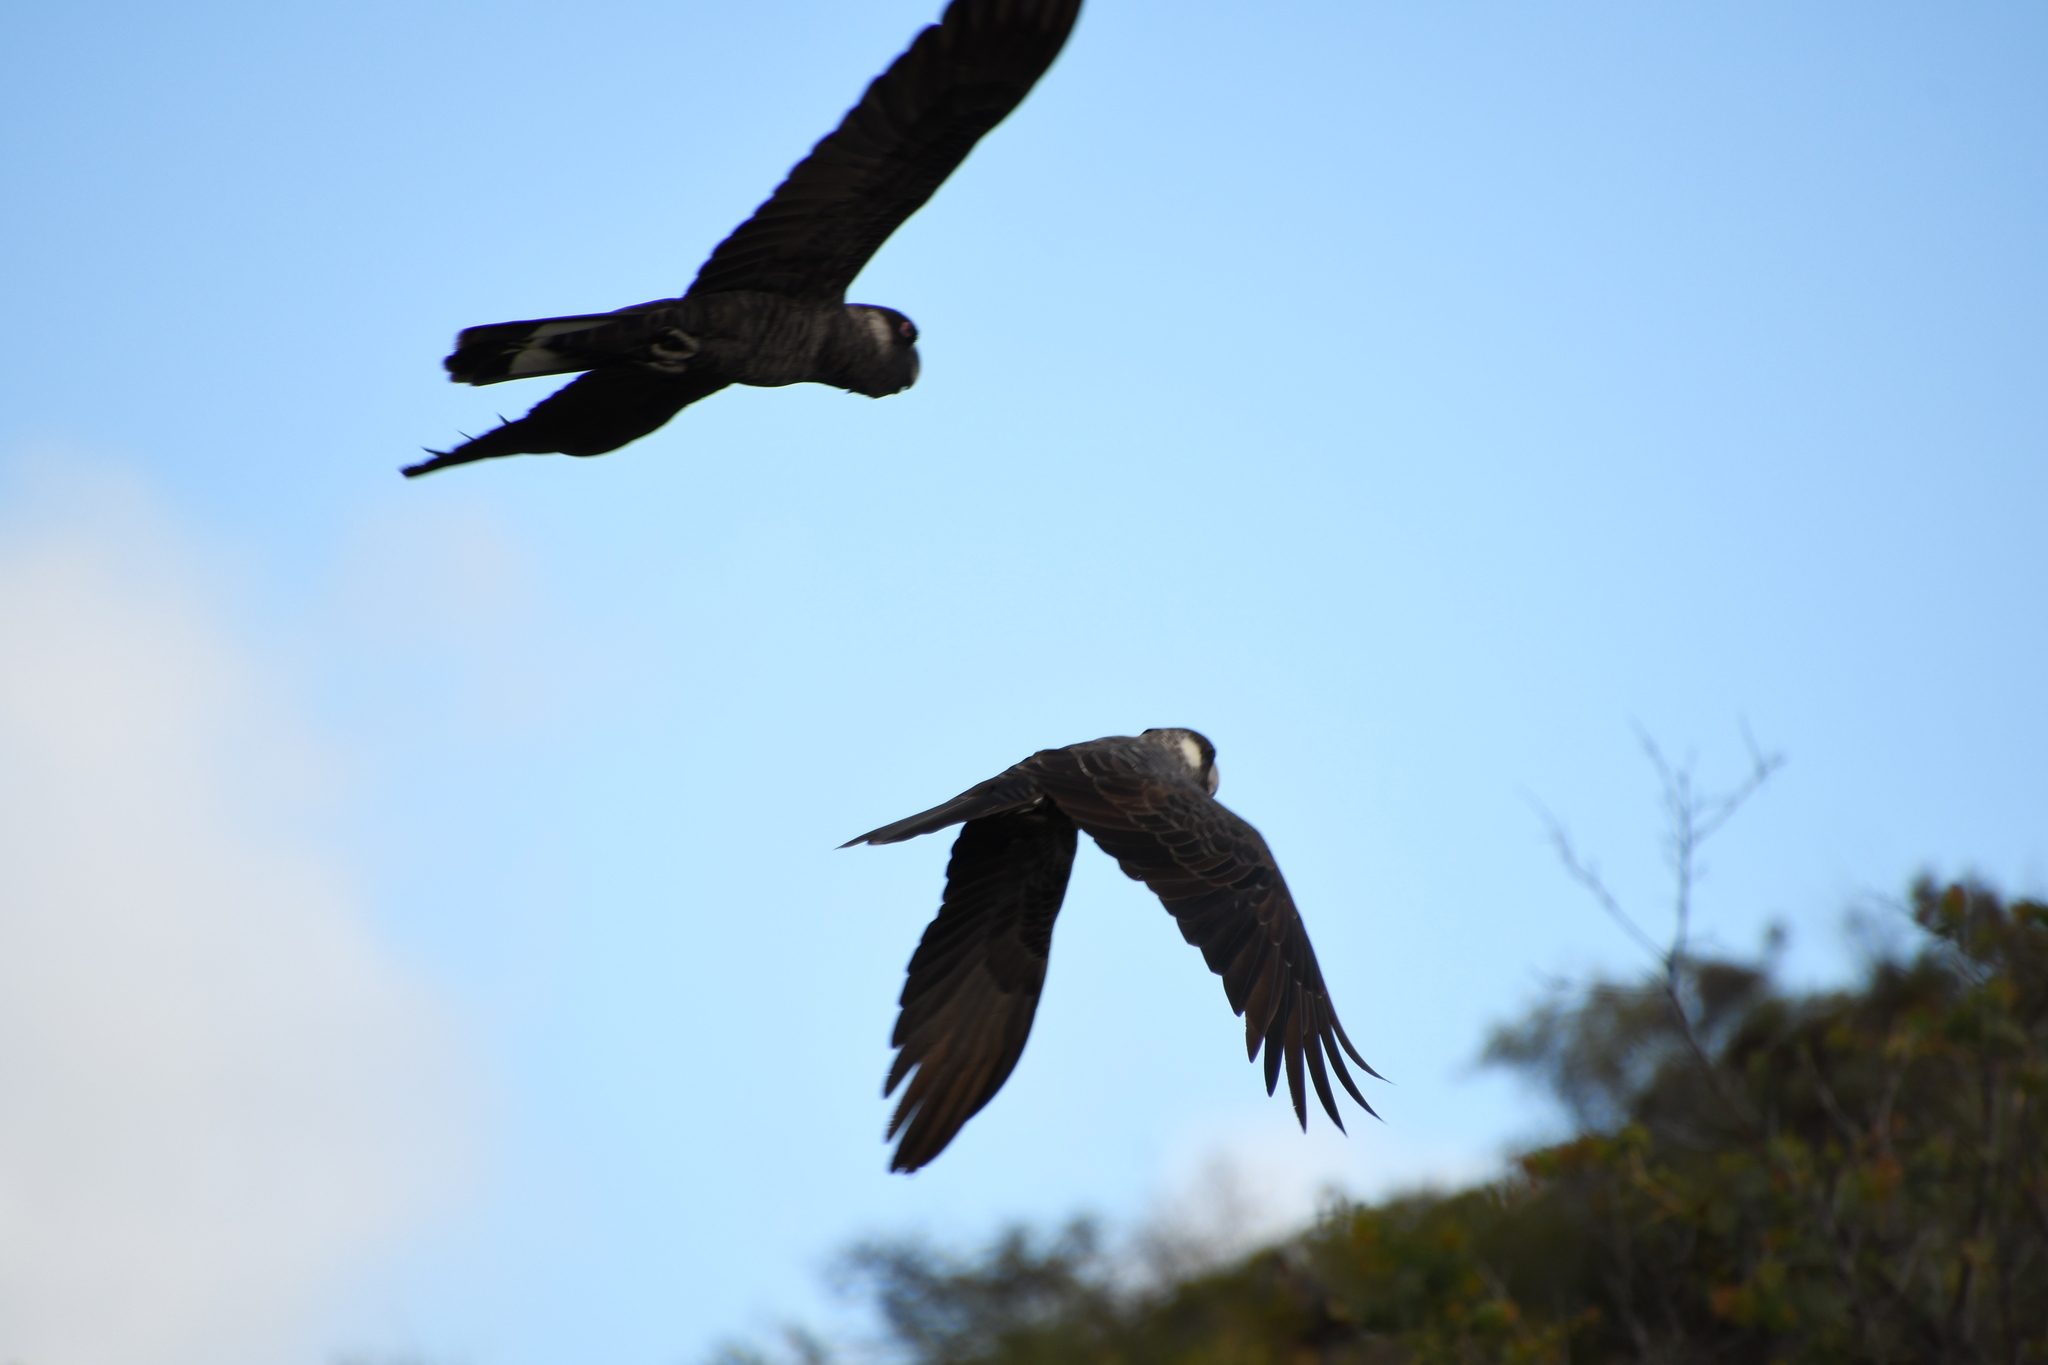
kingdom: Animalia
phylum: Chordata
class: Aves
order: Psittaciformes
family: Cacatuidae
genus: Zanda
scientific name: Zanda latirostris
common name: Short-billed black-cockatoo
